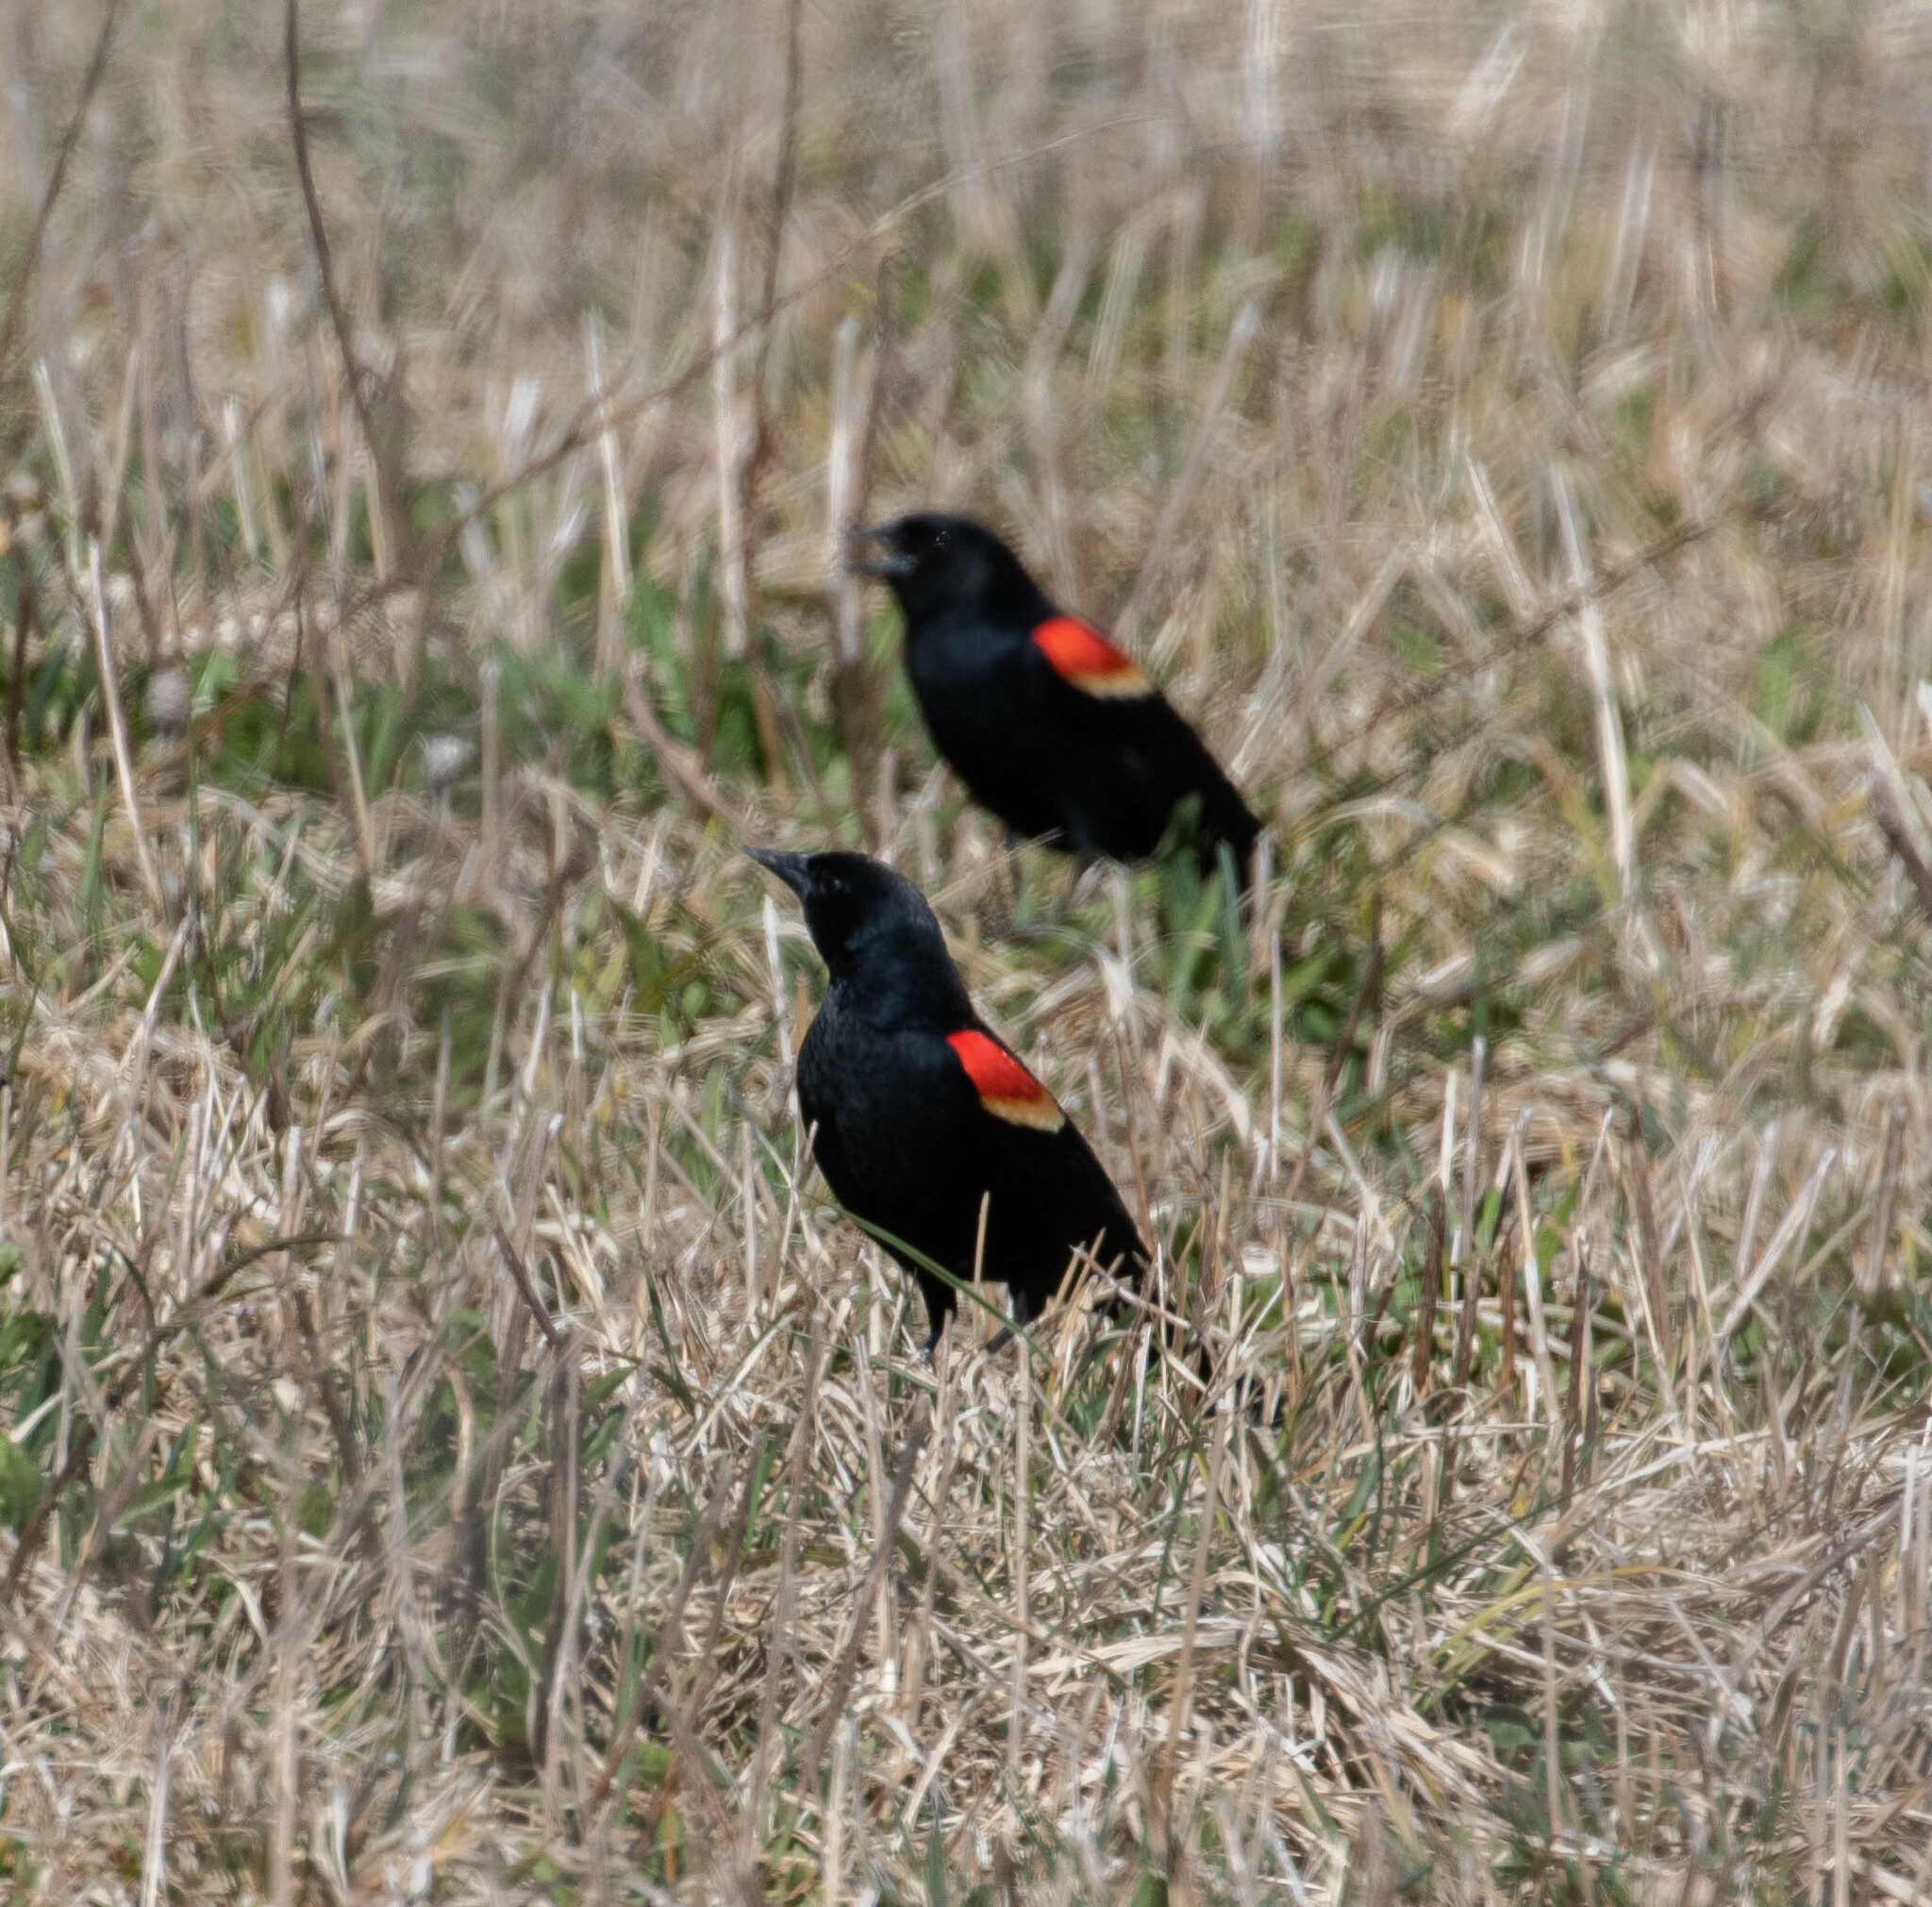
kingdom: Animalia
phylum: Chordata
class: Aves
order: Passeriformes
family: Icteridae
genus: Agelaius
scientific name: Agelaius phoeniceus
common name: Red-winged blackbird
